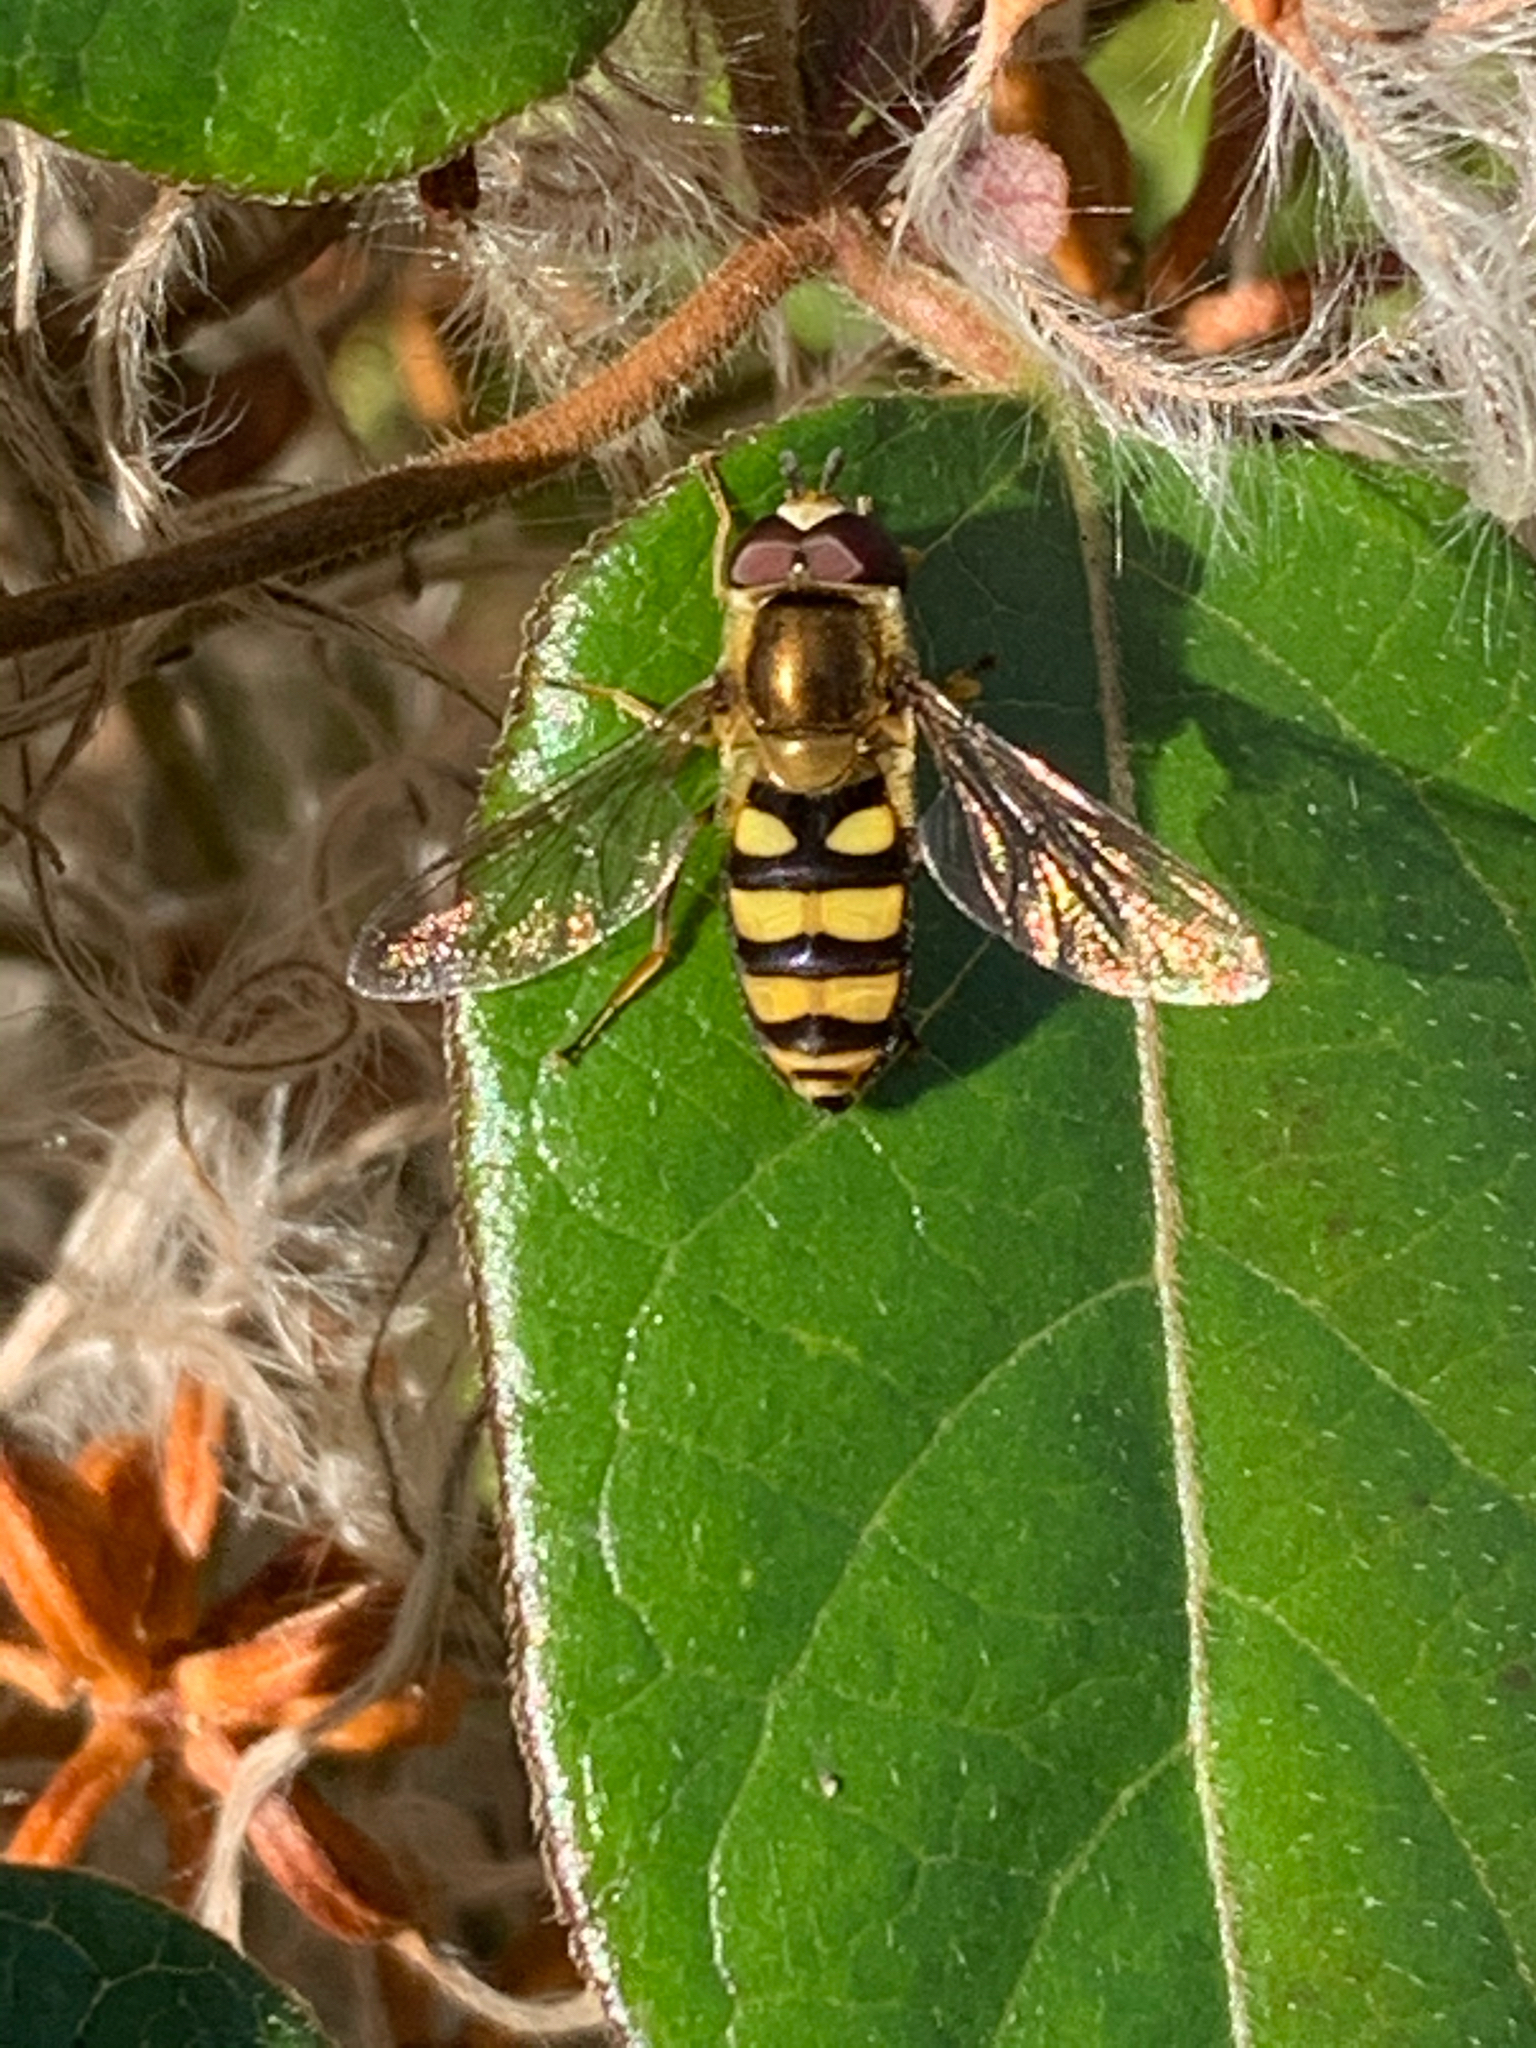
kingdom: Animalia
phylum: Arthropoda
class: Insecta
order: Diptera
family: Syrphidae
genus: Eupeodes
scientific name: Eupeodes
